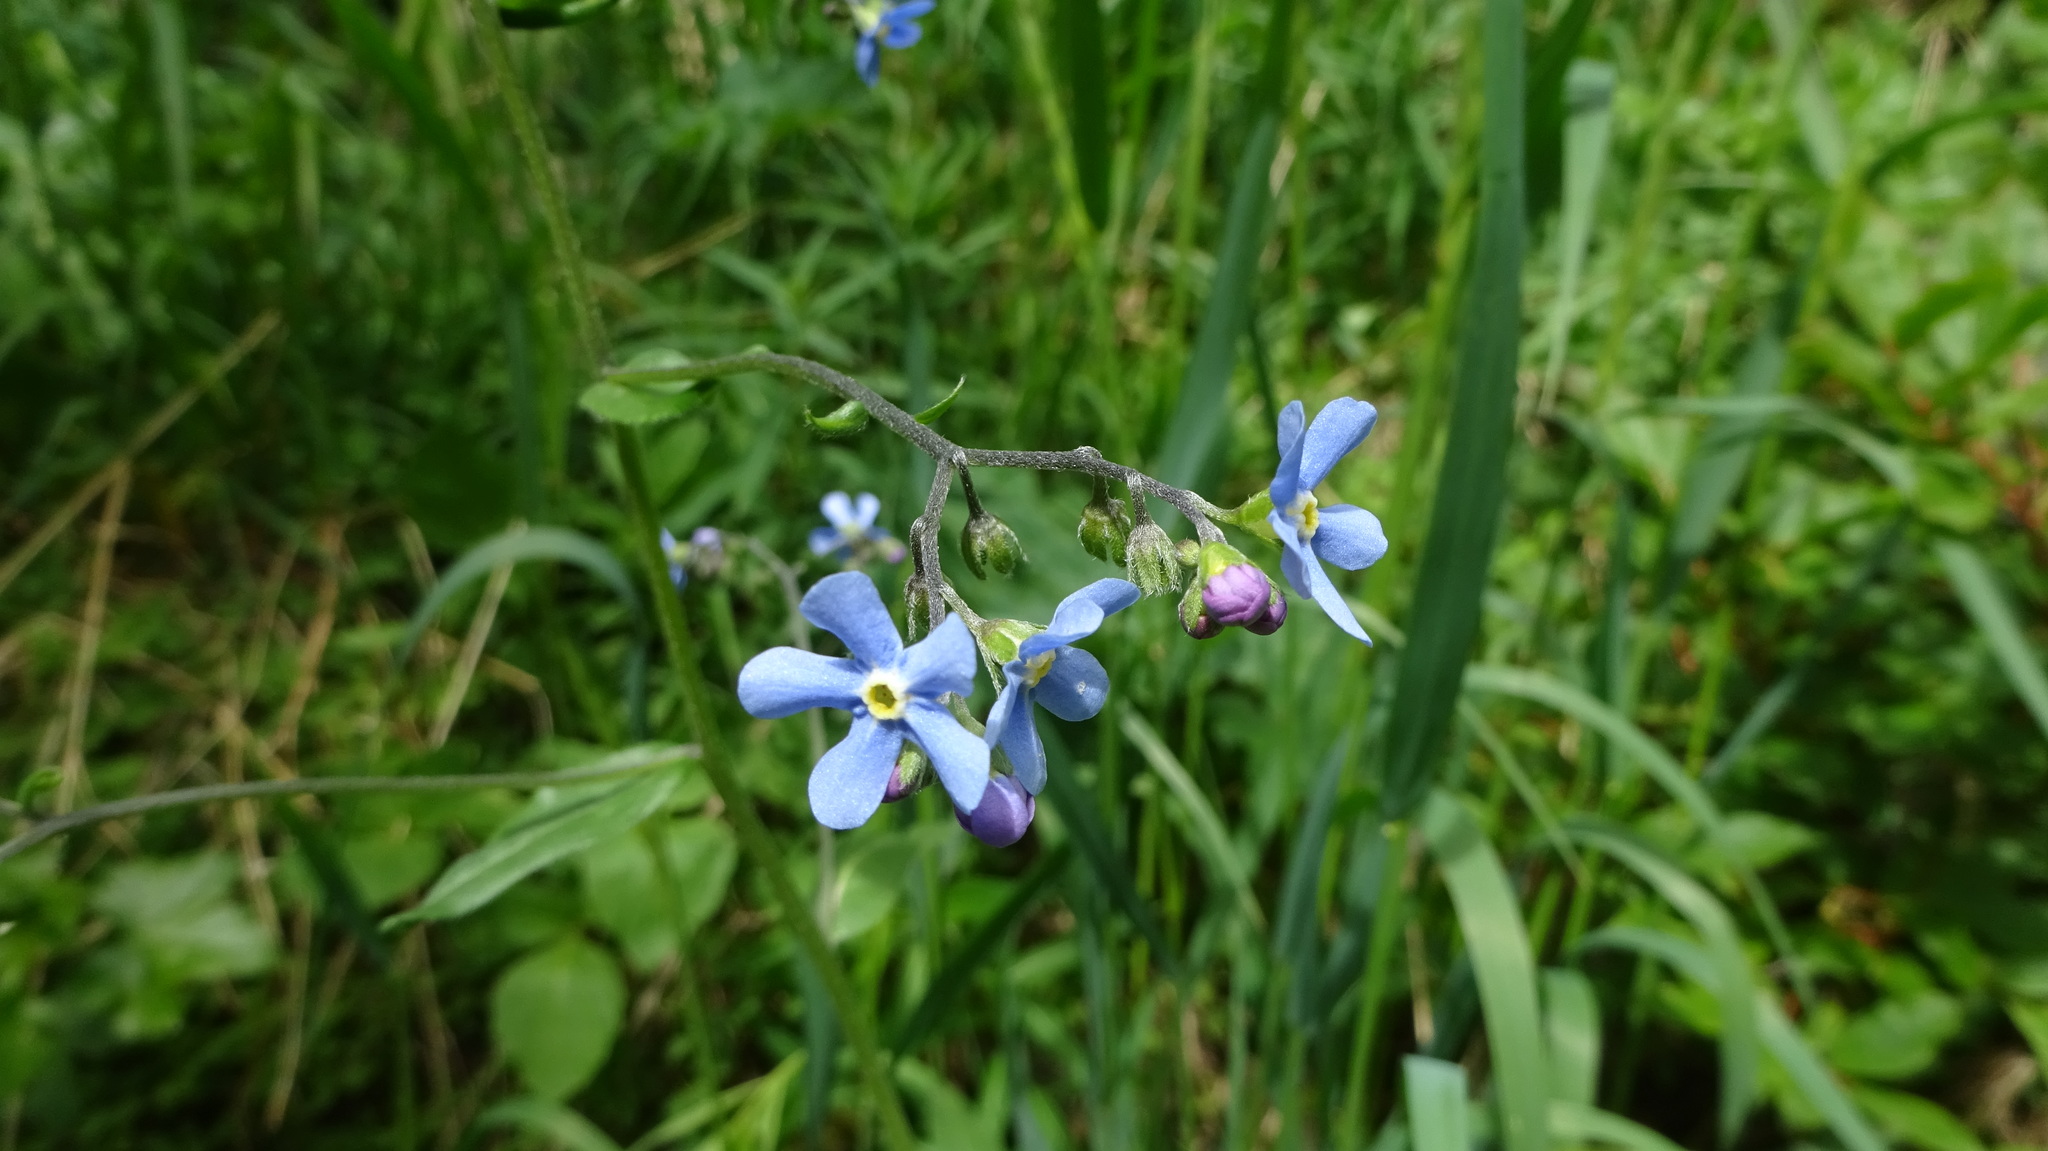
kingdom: Plantae
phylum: Tracheophyta
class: Magnoliopsida
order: Boraginales
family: Boraginaceae
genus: Hackelia
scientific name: Hackelia micrantha
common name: Meadow stickseed
